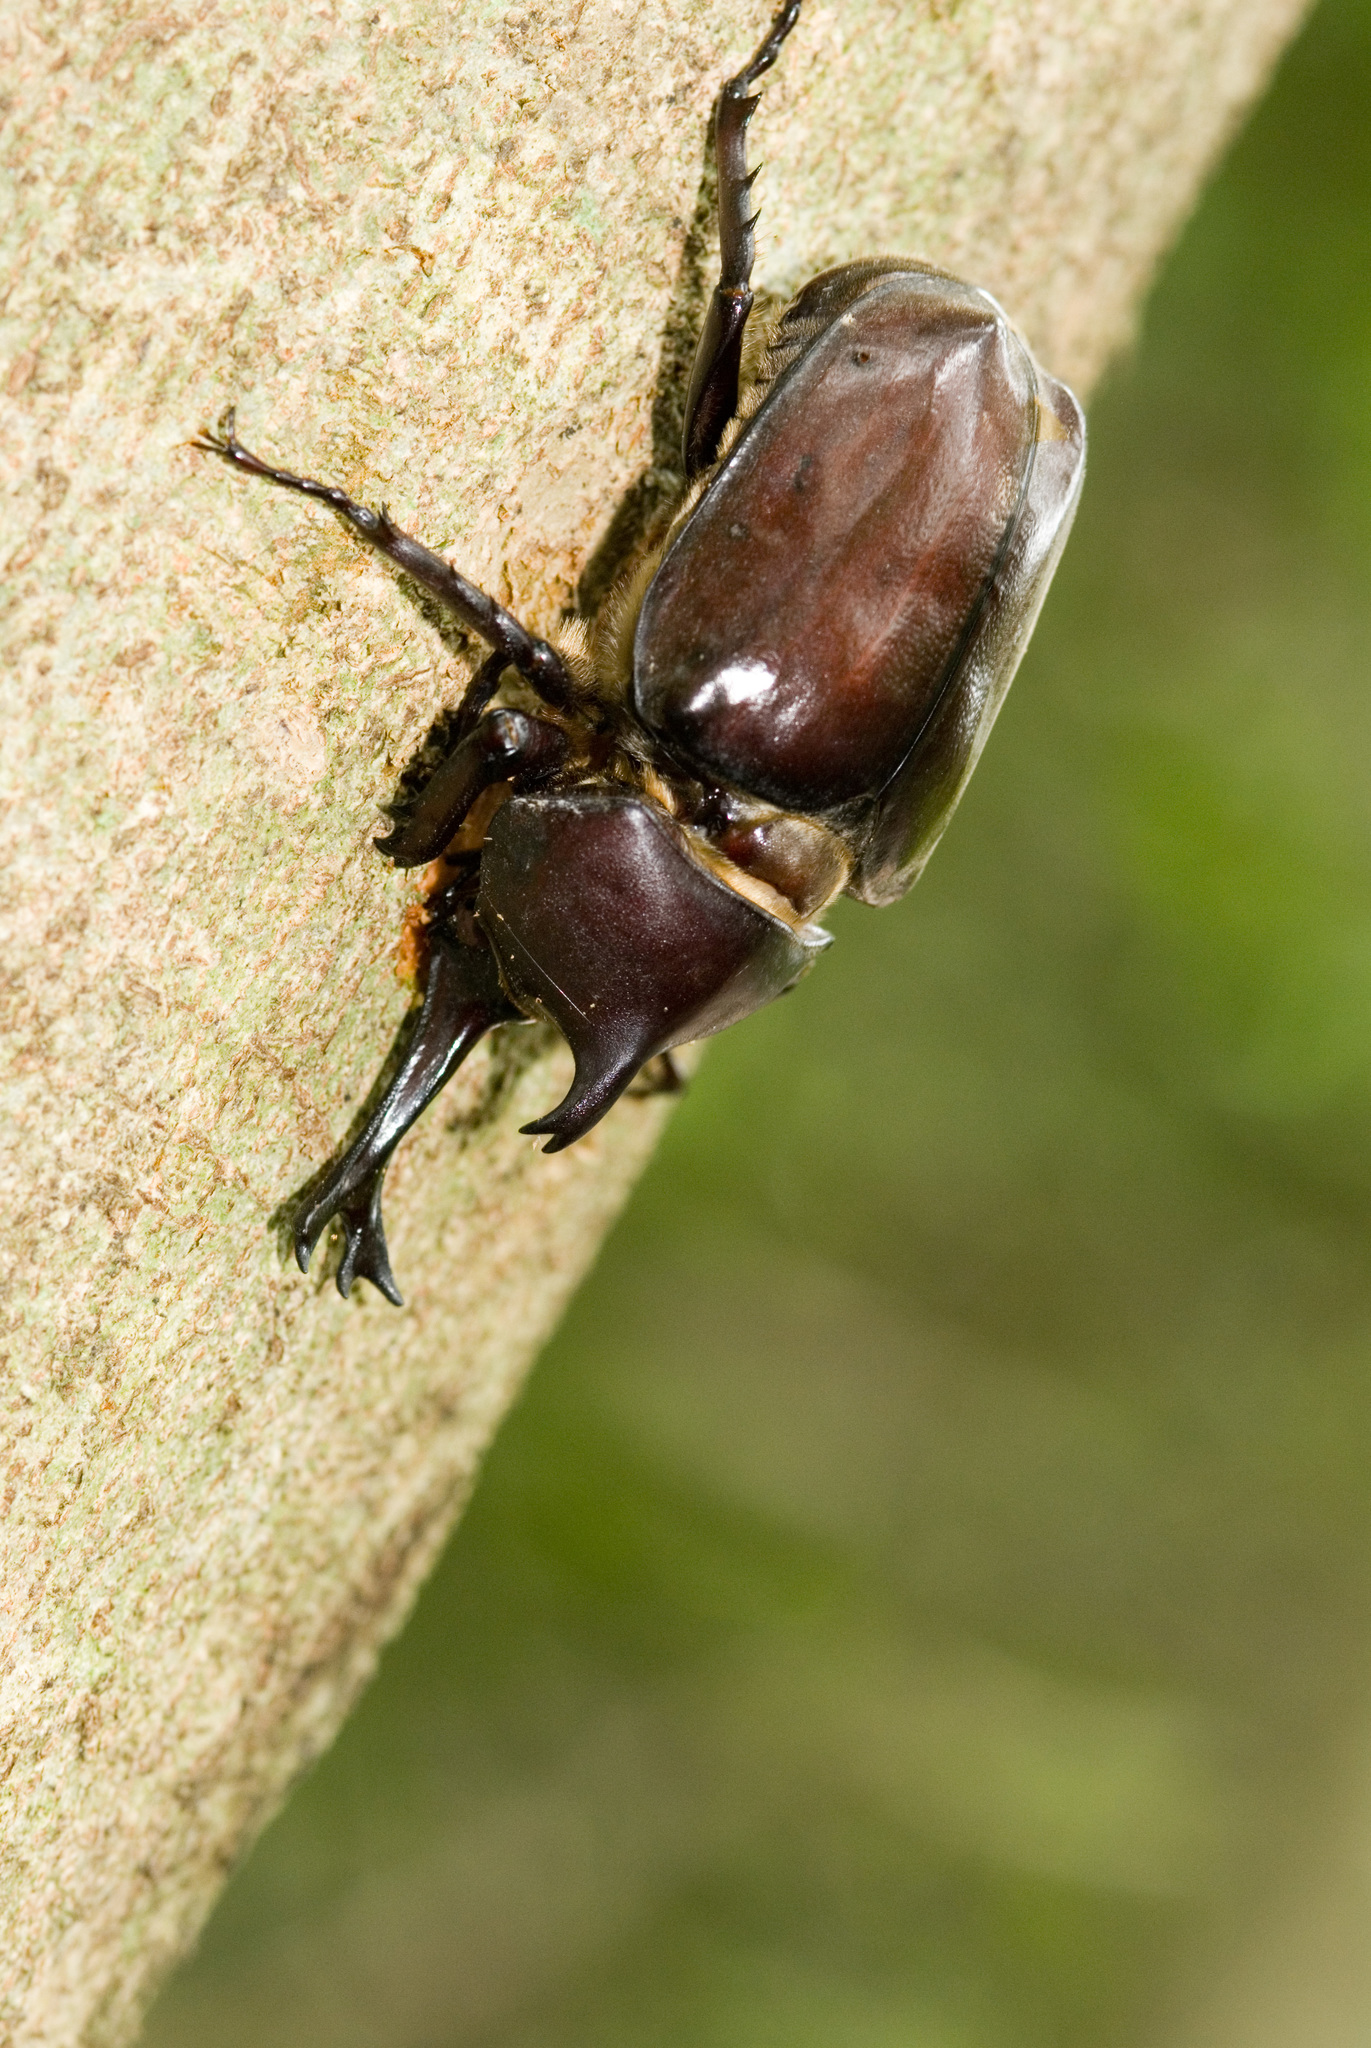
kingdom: Animalia
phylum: Arthropoda
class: Insecta
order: Coleoptera
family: Scarabaeidae
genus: Trypoxylus
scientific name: Trypoxylus dichotomus
